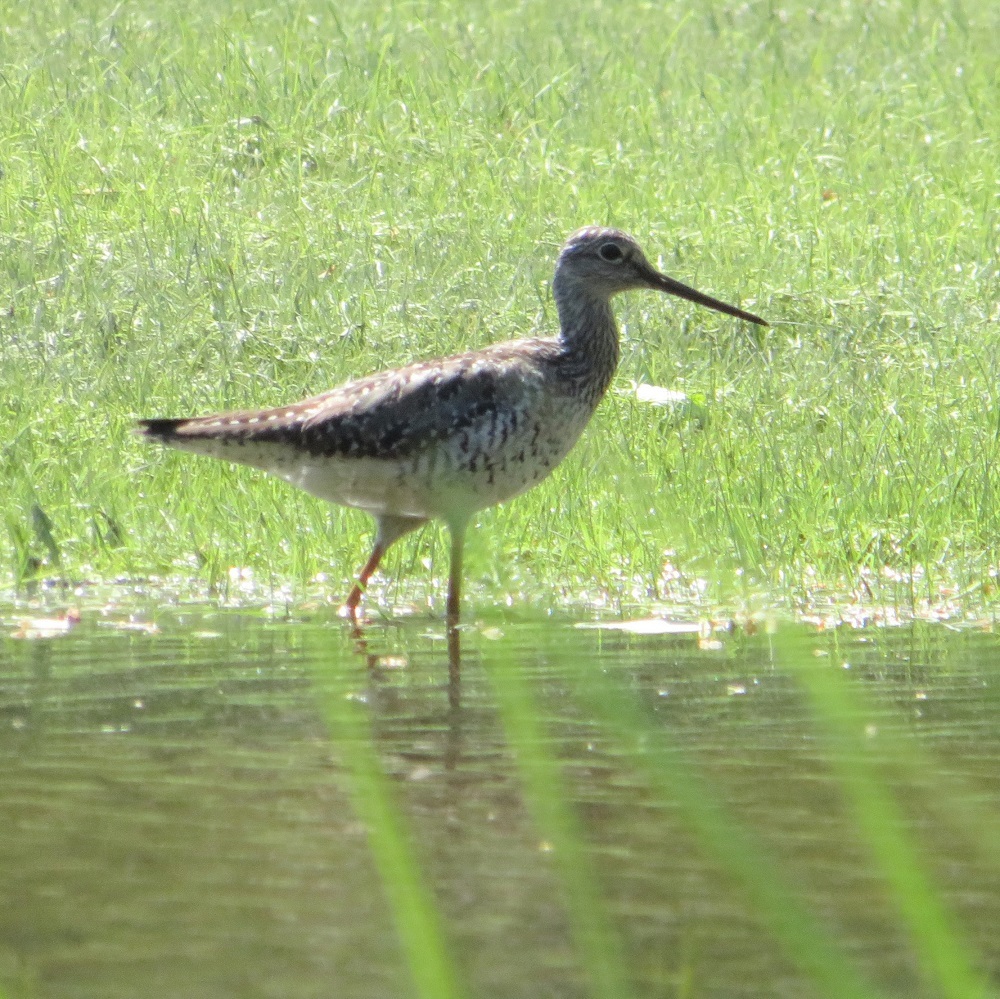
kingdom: Animalia
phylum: Chordata
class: Aves
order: Charadriiformes
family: Scolopacidae
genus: Tringa
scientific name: Tringa melanoleuca
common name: Greater yellowlegs
